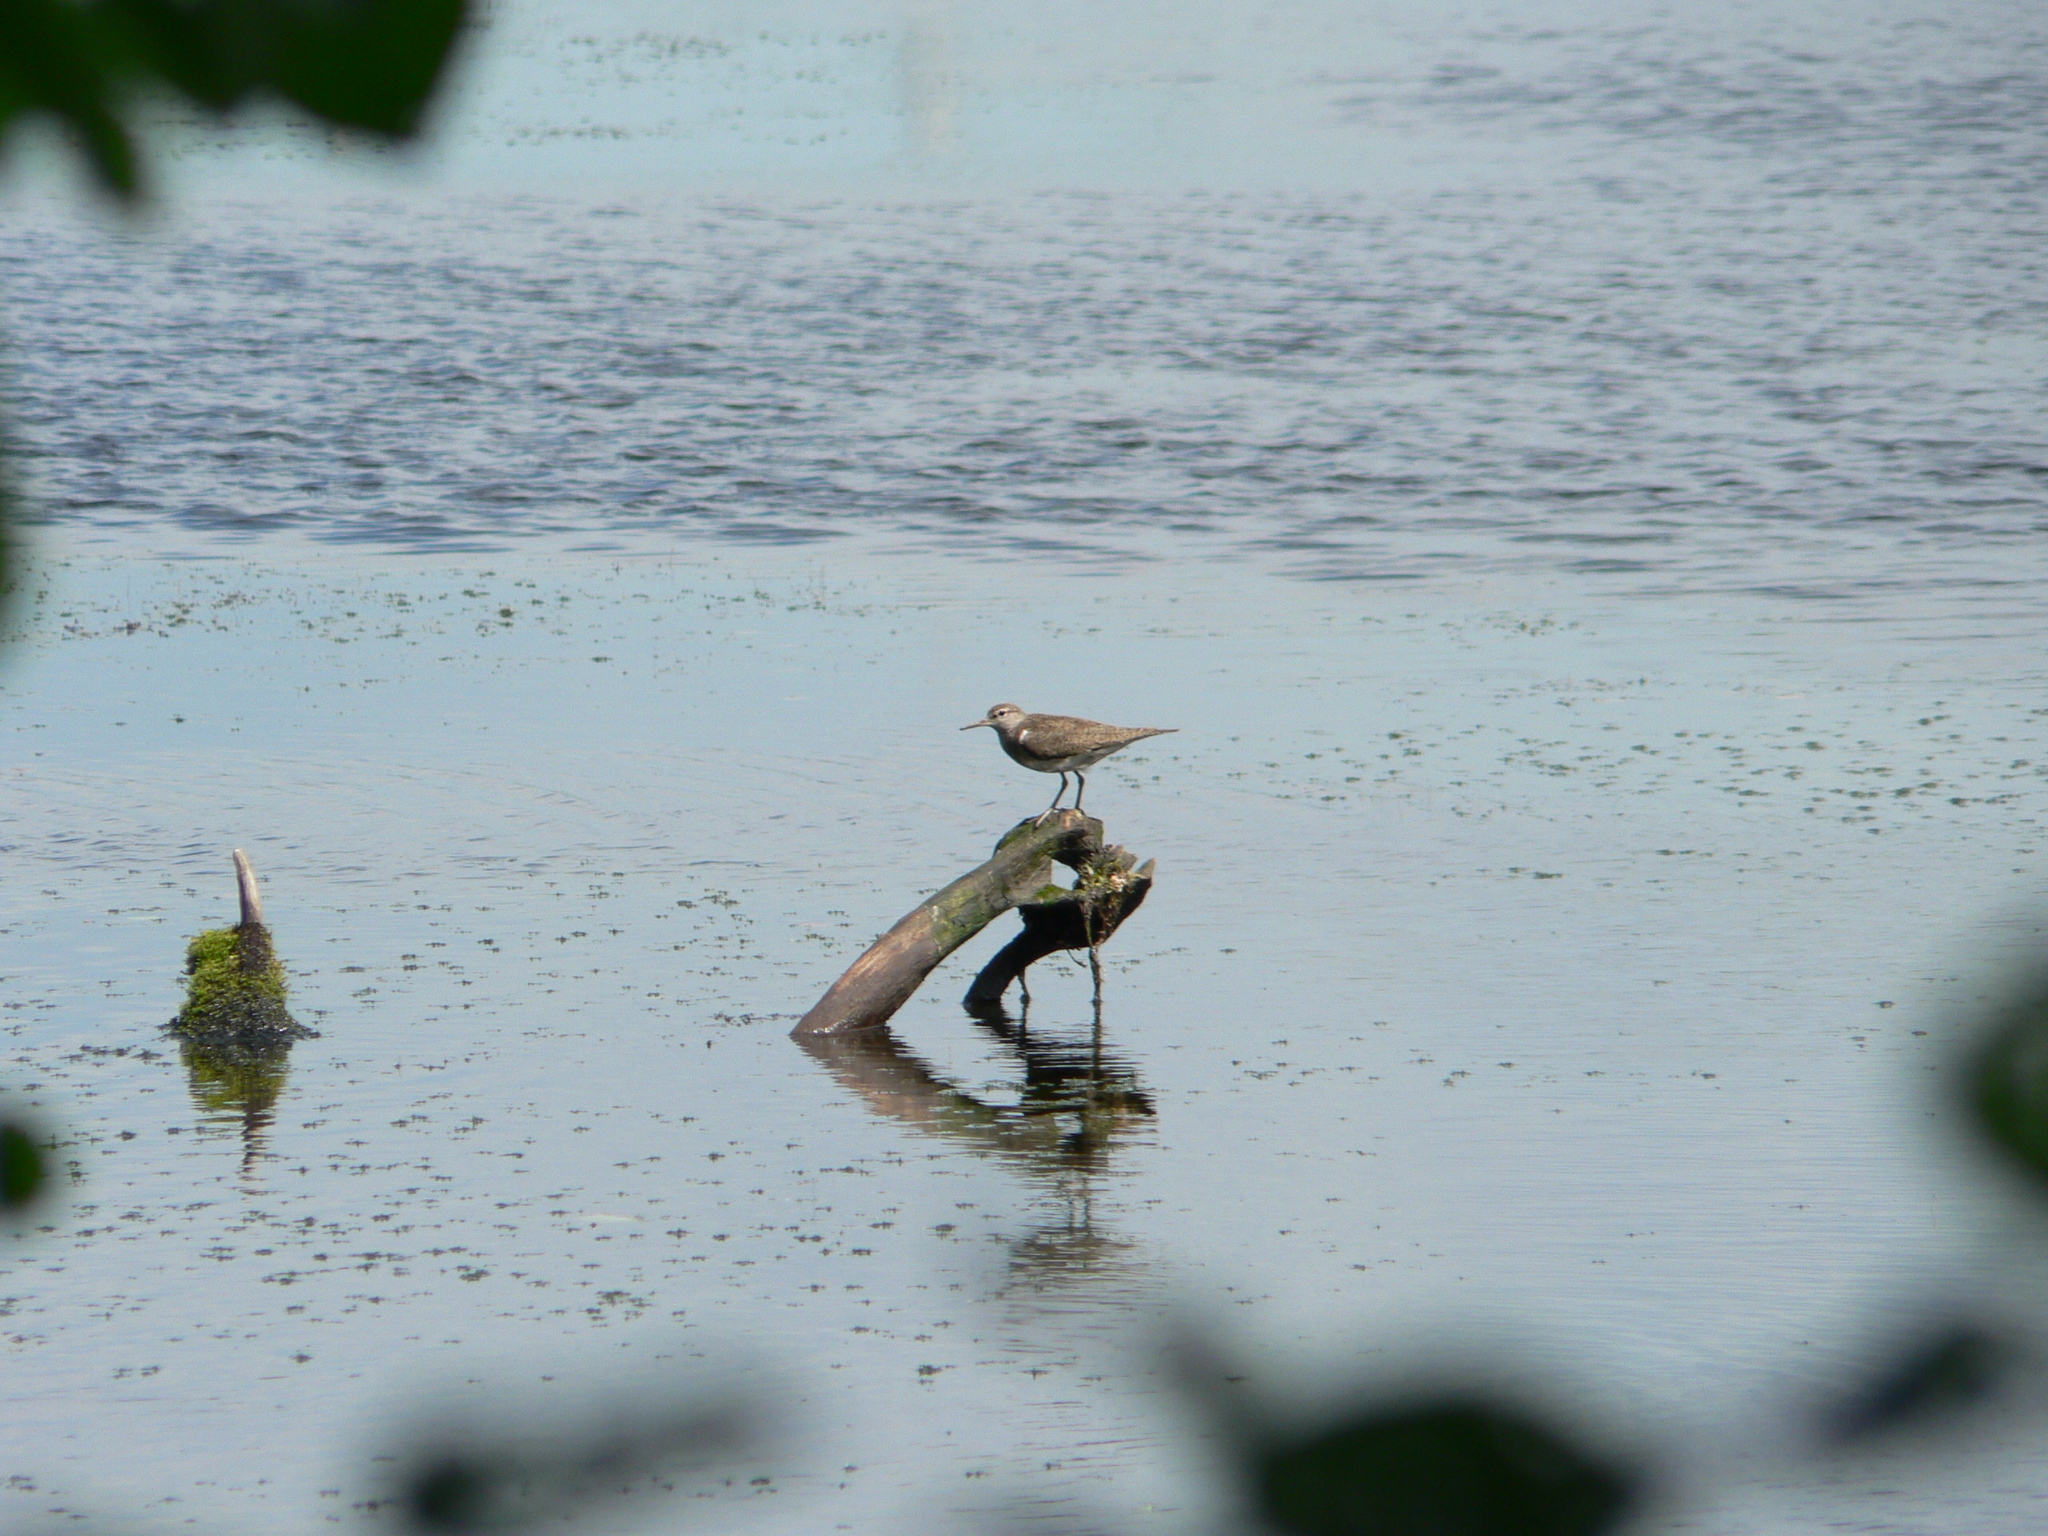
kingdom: Animalia
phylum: Chordata
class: Aves
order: Charadriiformes
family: Scolopacidae
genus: Actitis
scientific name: Actitis hypoleucos
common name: Common sandpiper
